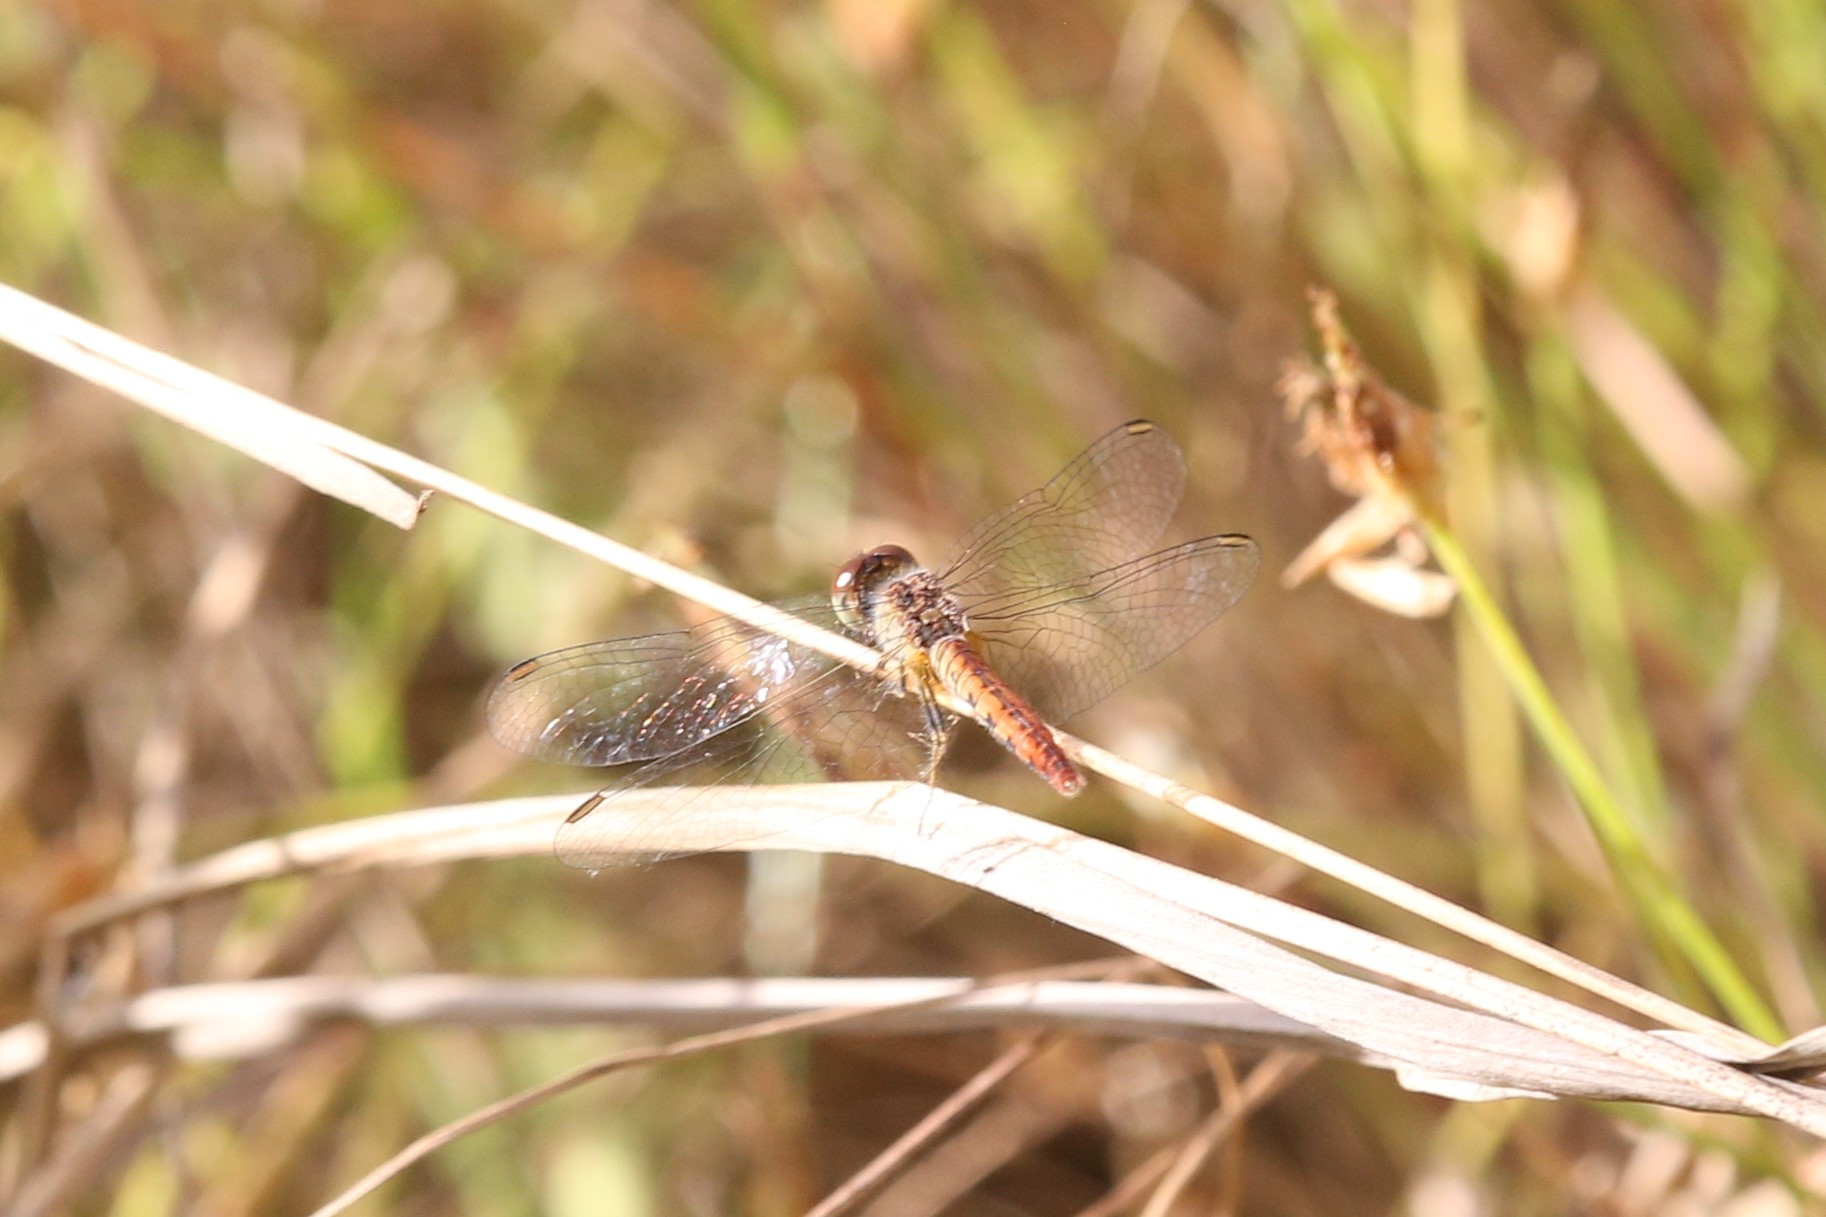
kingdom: Animalia
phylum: Arthropoda
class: Insecta
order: Odonata
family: Libellulidae
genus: Nannodiplax
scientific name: Nannodiplax rubra
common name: Pygmy percher
